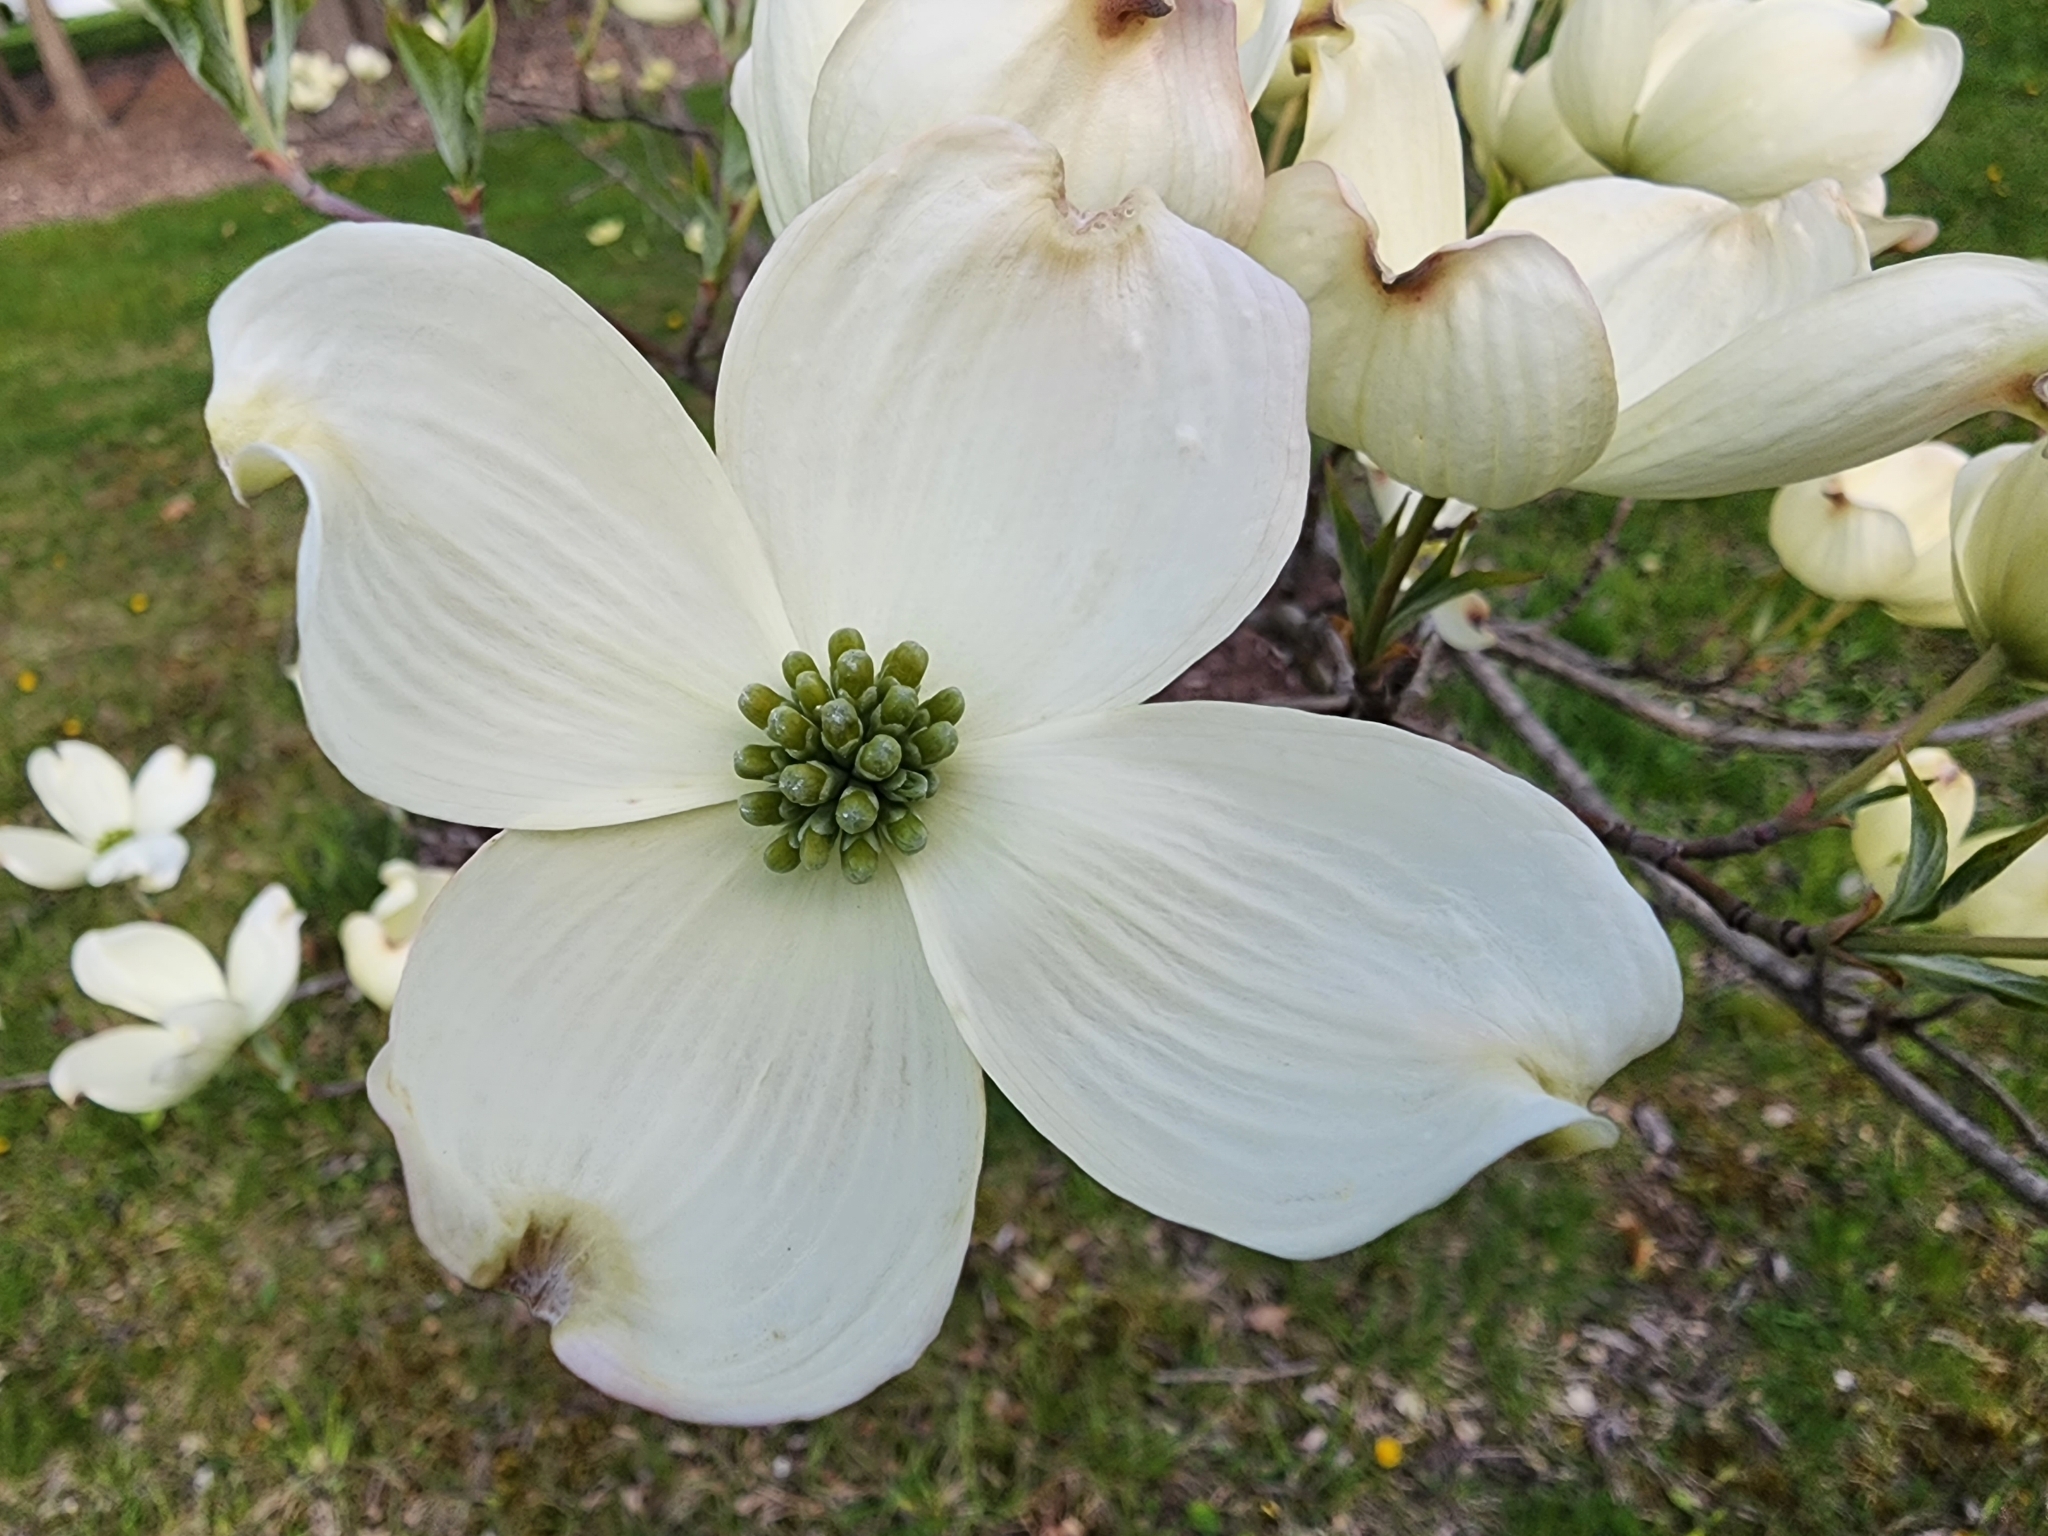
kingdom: Plantae
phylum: Tracheophyta
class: Magnoliopsida
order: Cornales
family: Cornaceae
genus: Cornus
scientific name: Cornus florida
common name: Flowering dogwood
